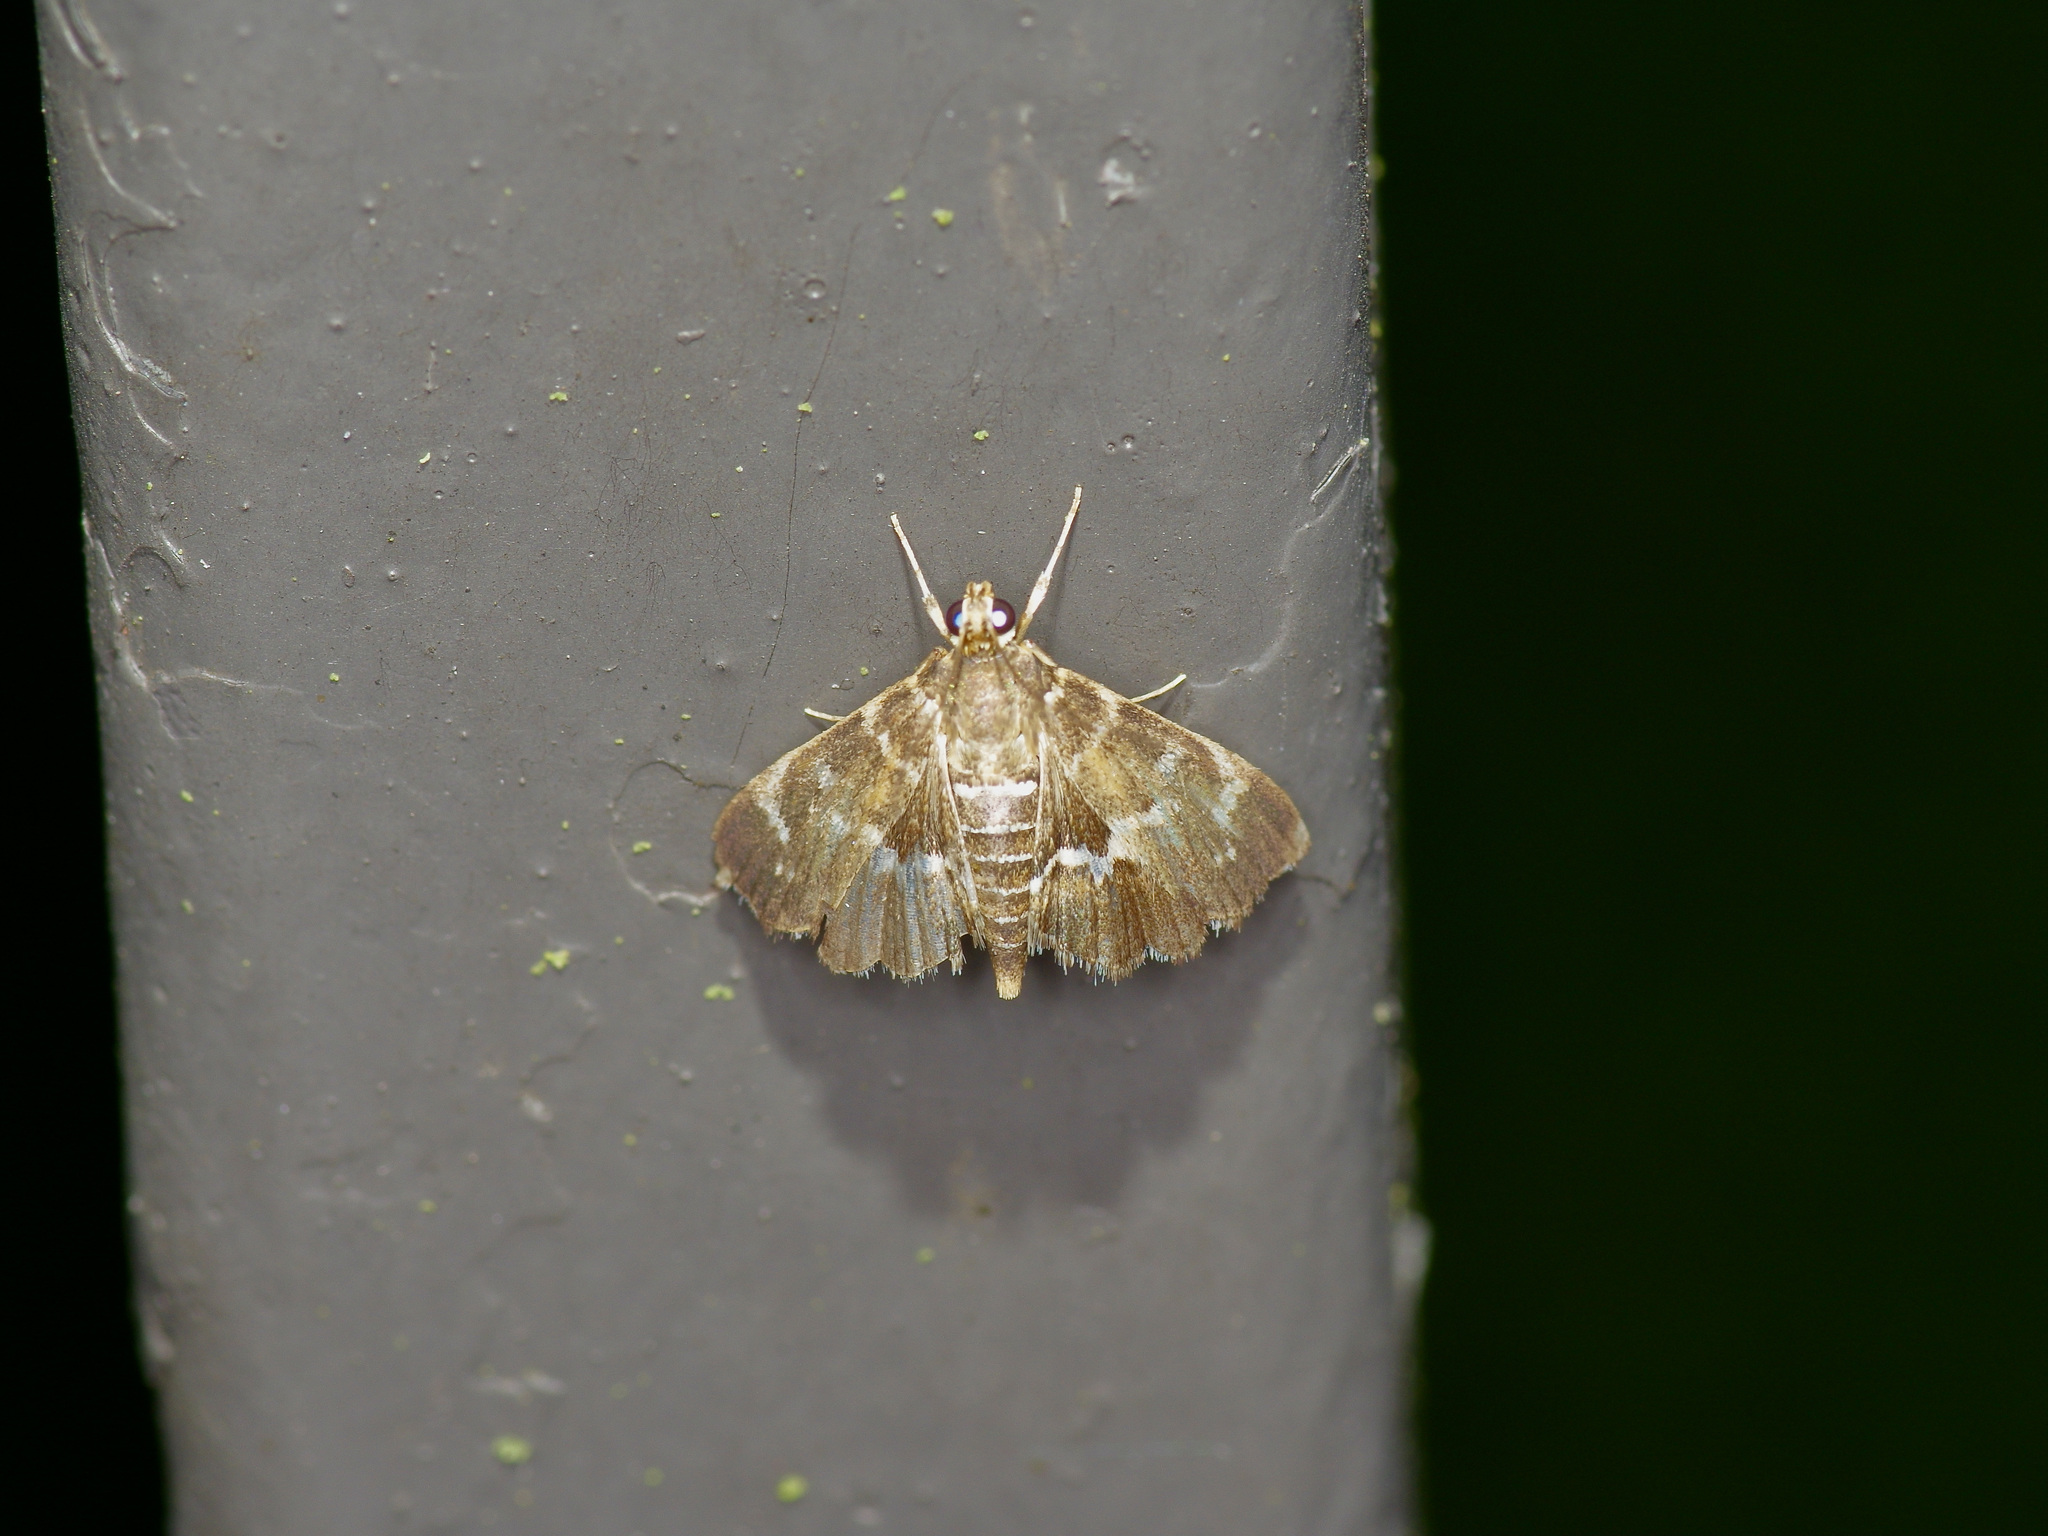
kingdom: Animalia
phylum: Arthropoda
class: Insecta
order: Lepidoptera
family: Crambidae
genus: Hymenia
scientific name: Hymenia perspectalis
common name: Spotted beet webworm
